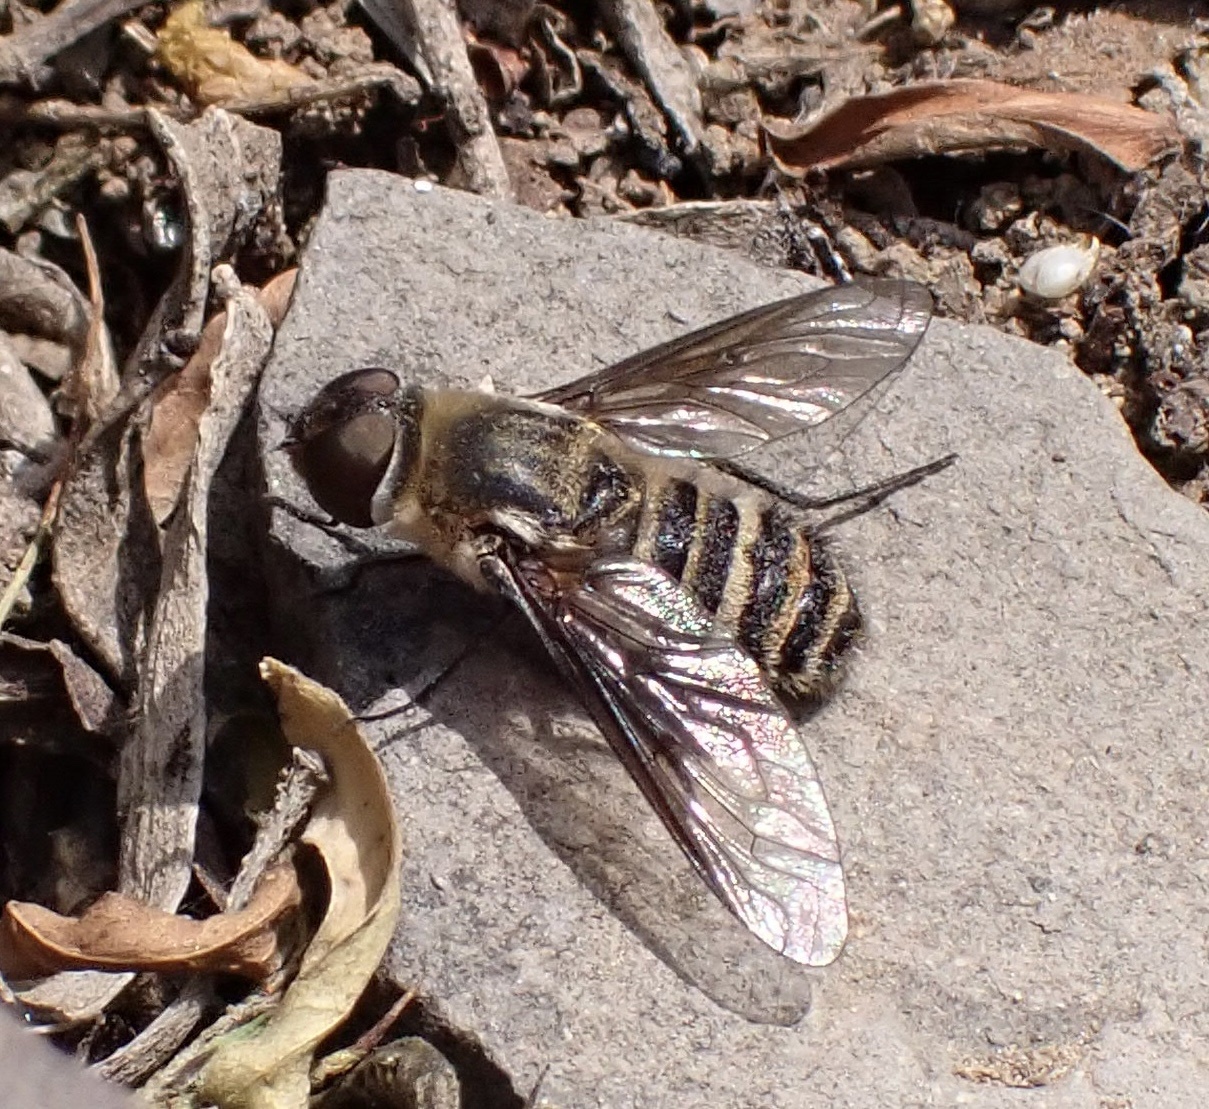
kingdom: Animalia
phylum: Arthropoda
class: Insecta
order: Diptera
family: Bombyliidae
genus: Villa
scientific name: Villa phaeotaenia
